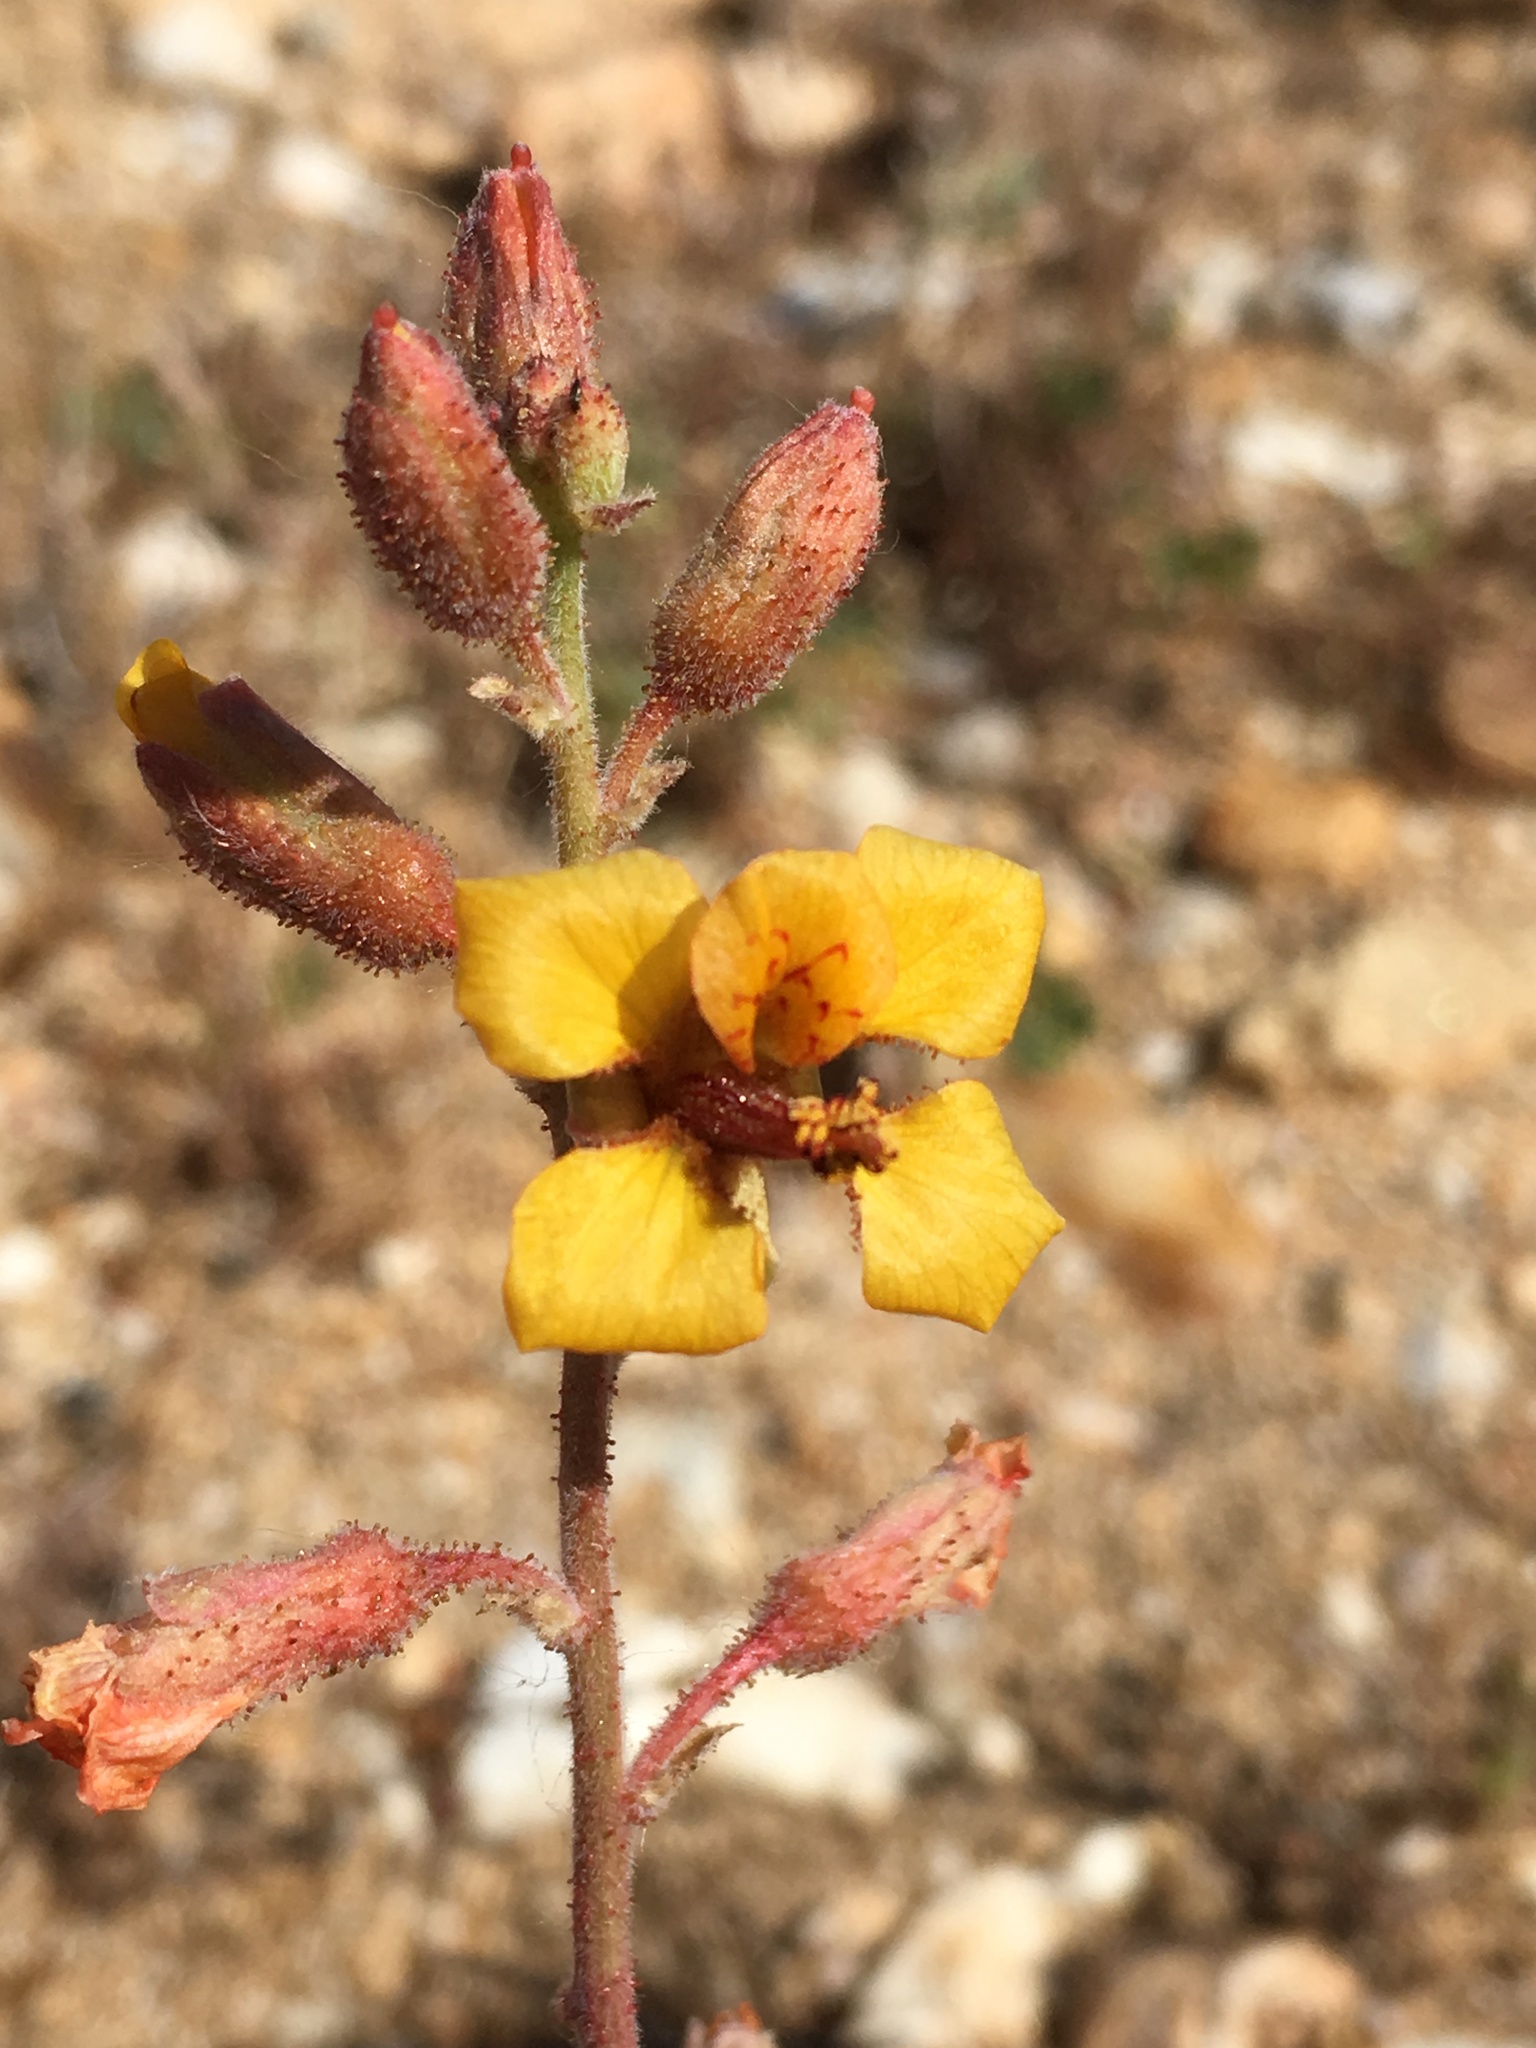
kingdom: Plantae
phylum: Tracheophyta
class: Magnoliopsida
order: Fabales
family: Fabaceae
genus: Hoffmannseggia
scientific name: Hoffmannseggia glauca
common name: Pignut
